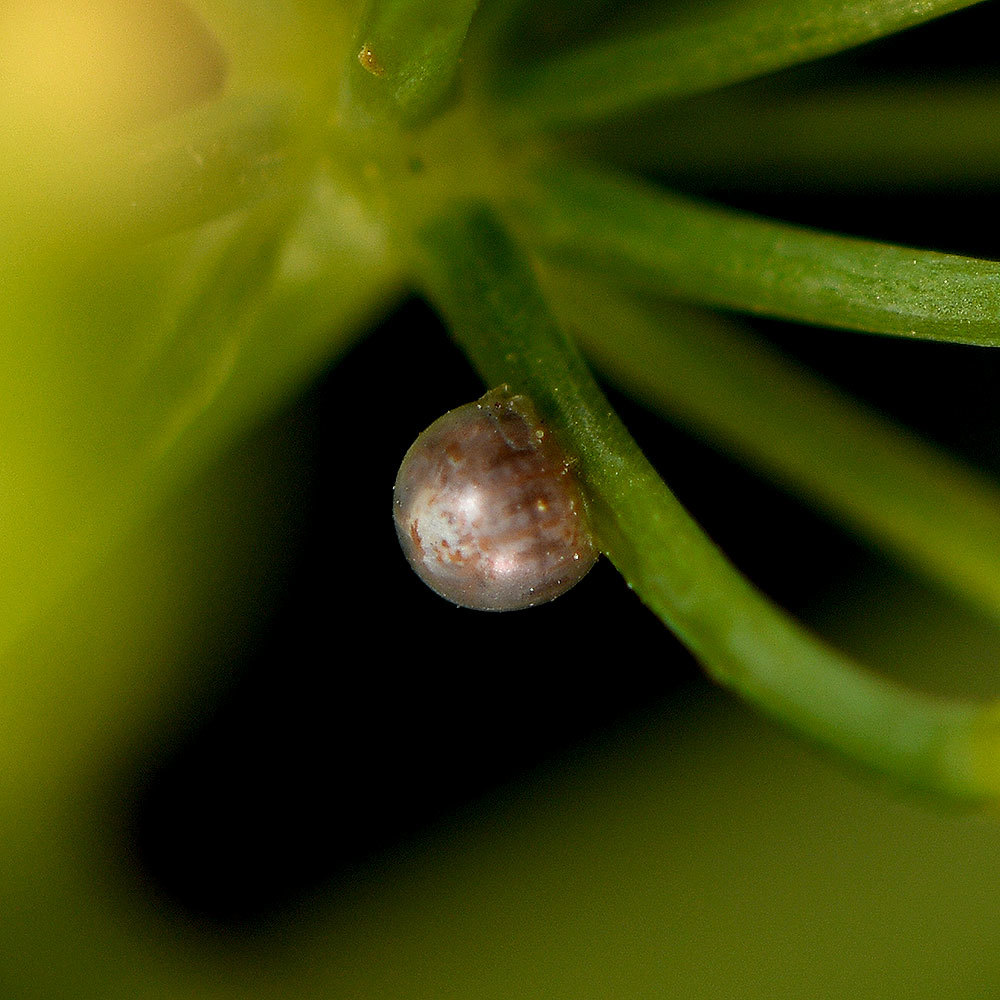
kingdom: Animalia
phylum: Arthropoda
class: Insecta
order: Lepidoptera
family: Papilionidae
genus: Papilio
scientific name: Papilio zelicaon
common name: Anise swallowtail
